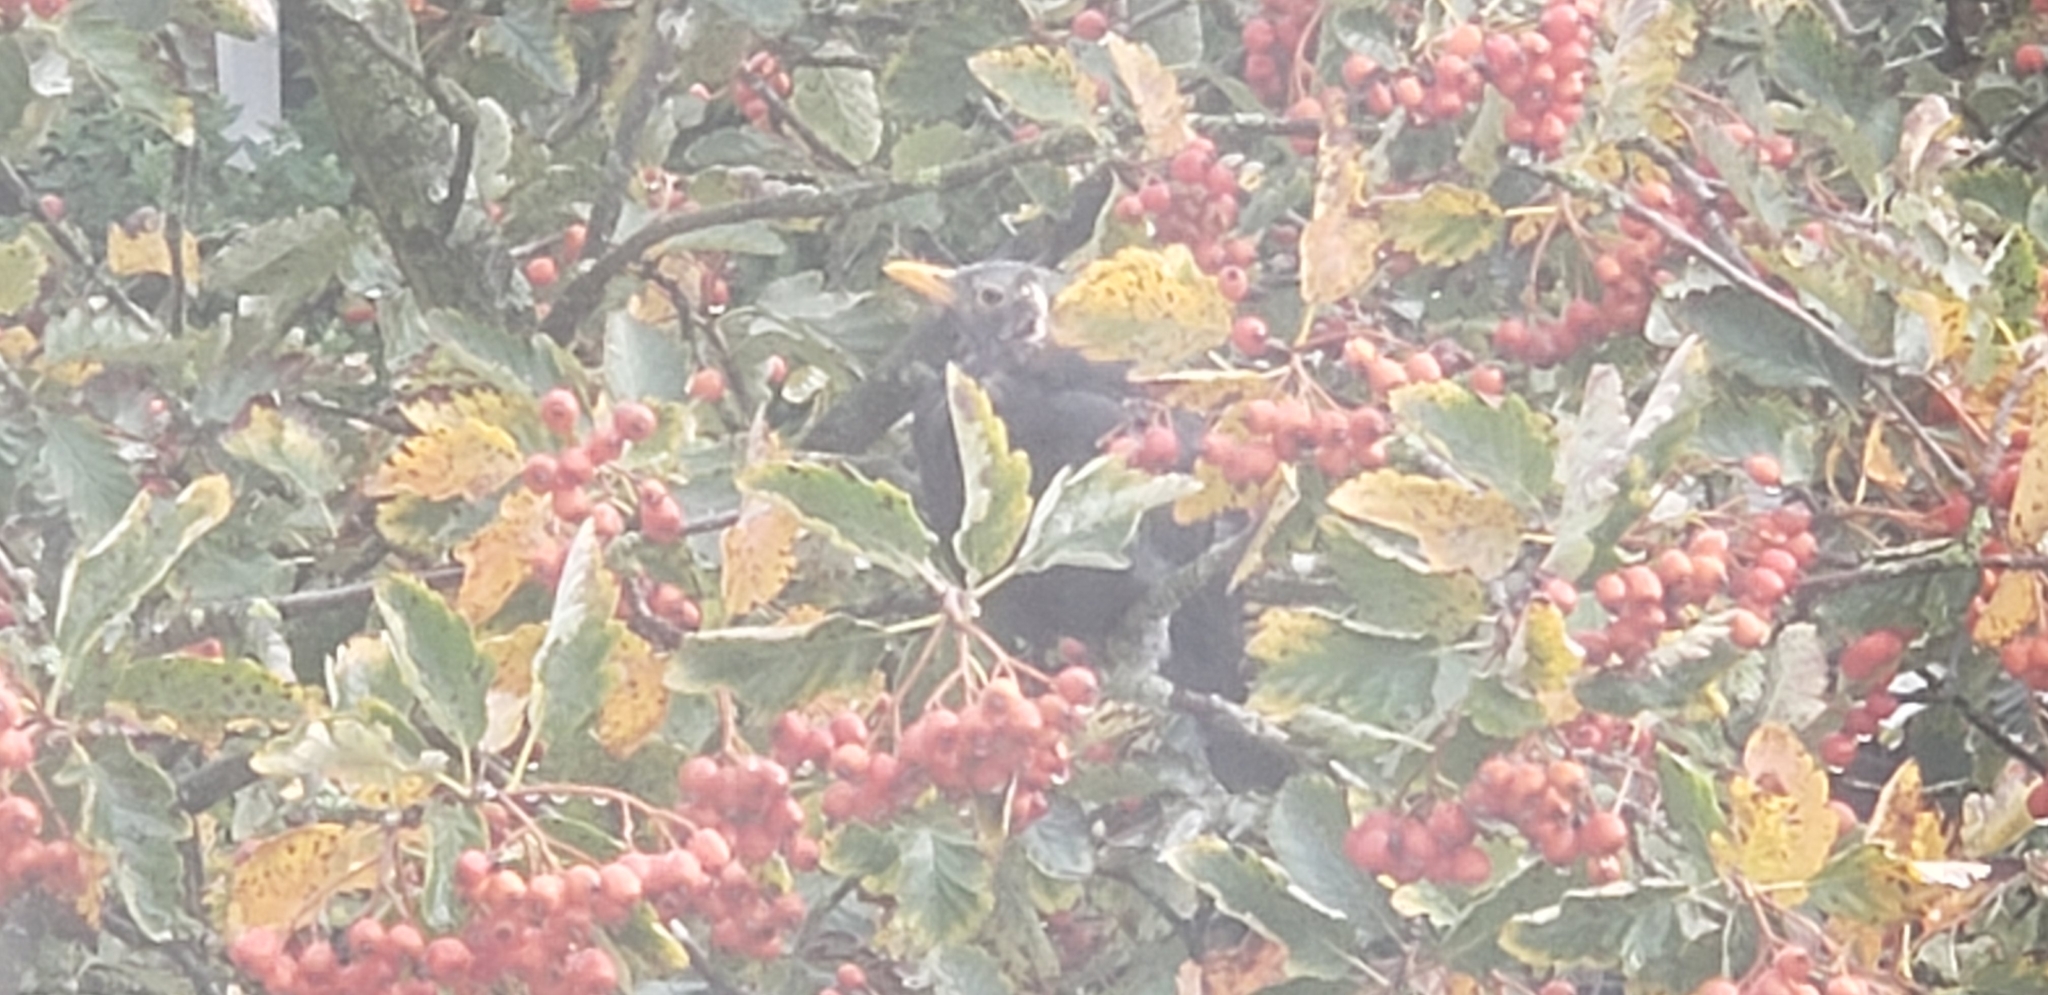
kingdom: Animalia
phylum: Chordata
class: Aves
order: Passeriformes
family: Turdidae
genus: Turdus
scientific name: Turdus merula
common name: Common blackbird
